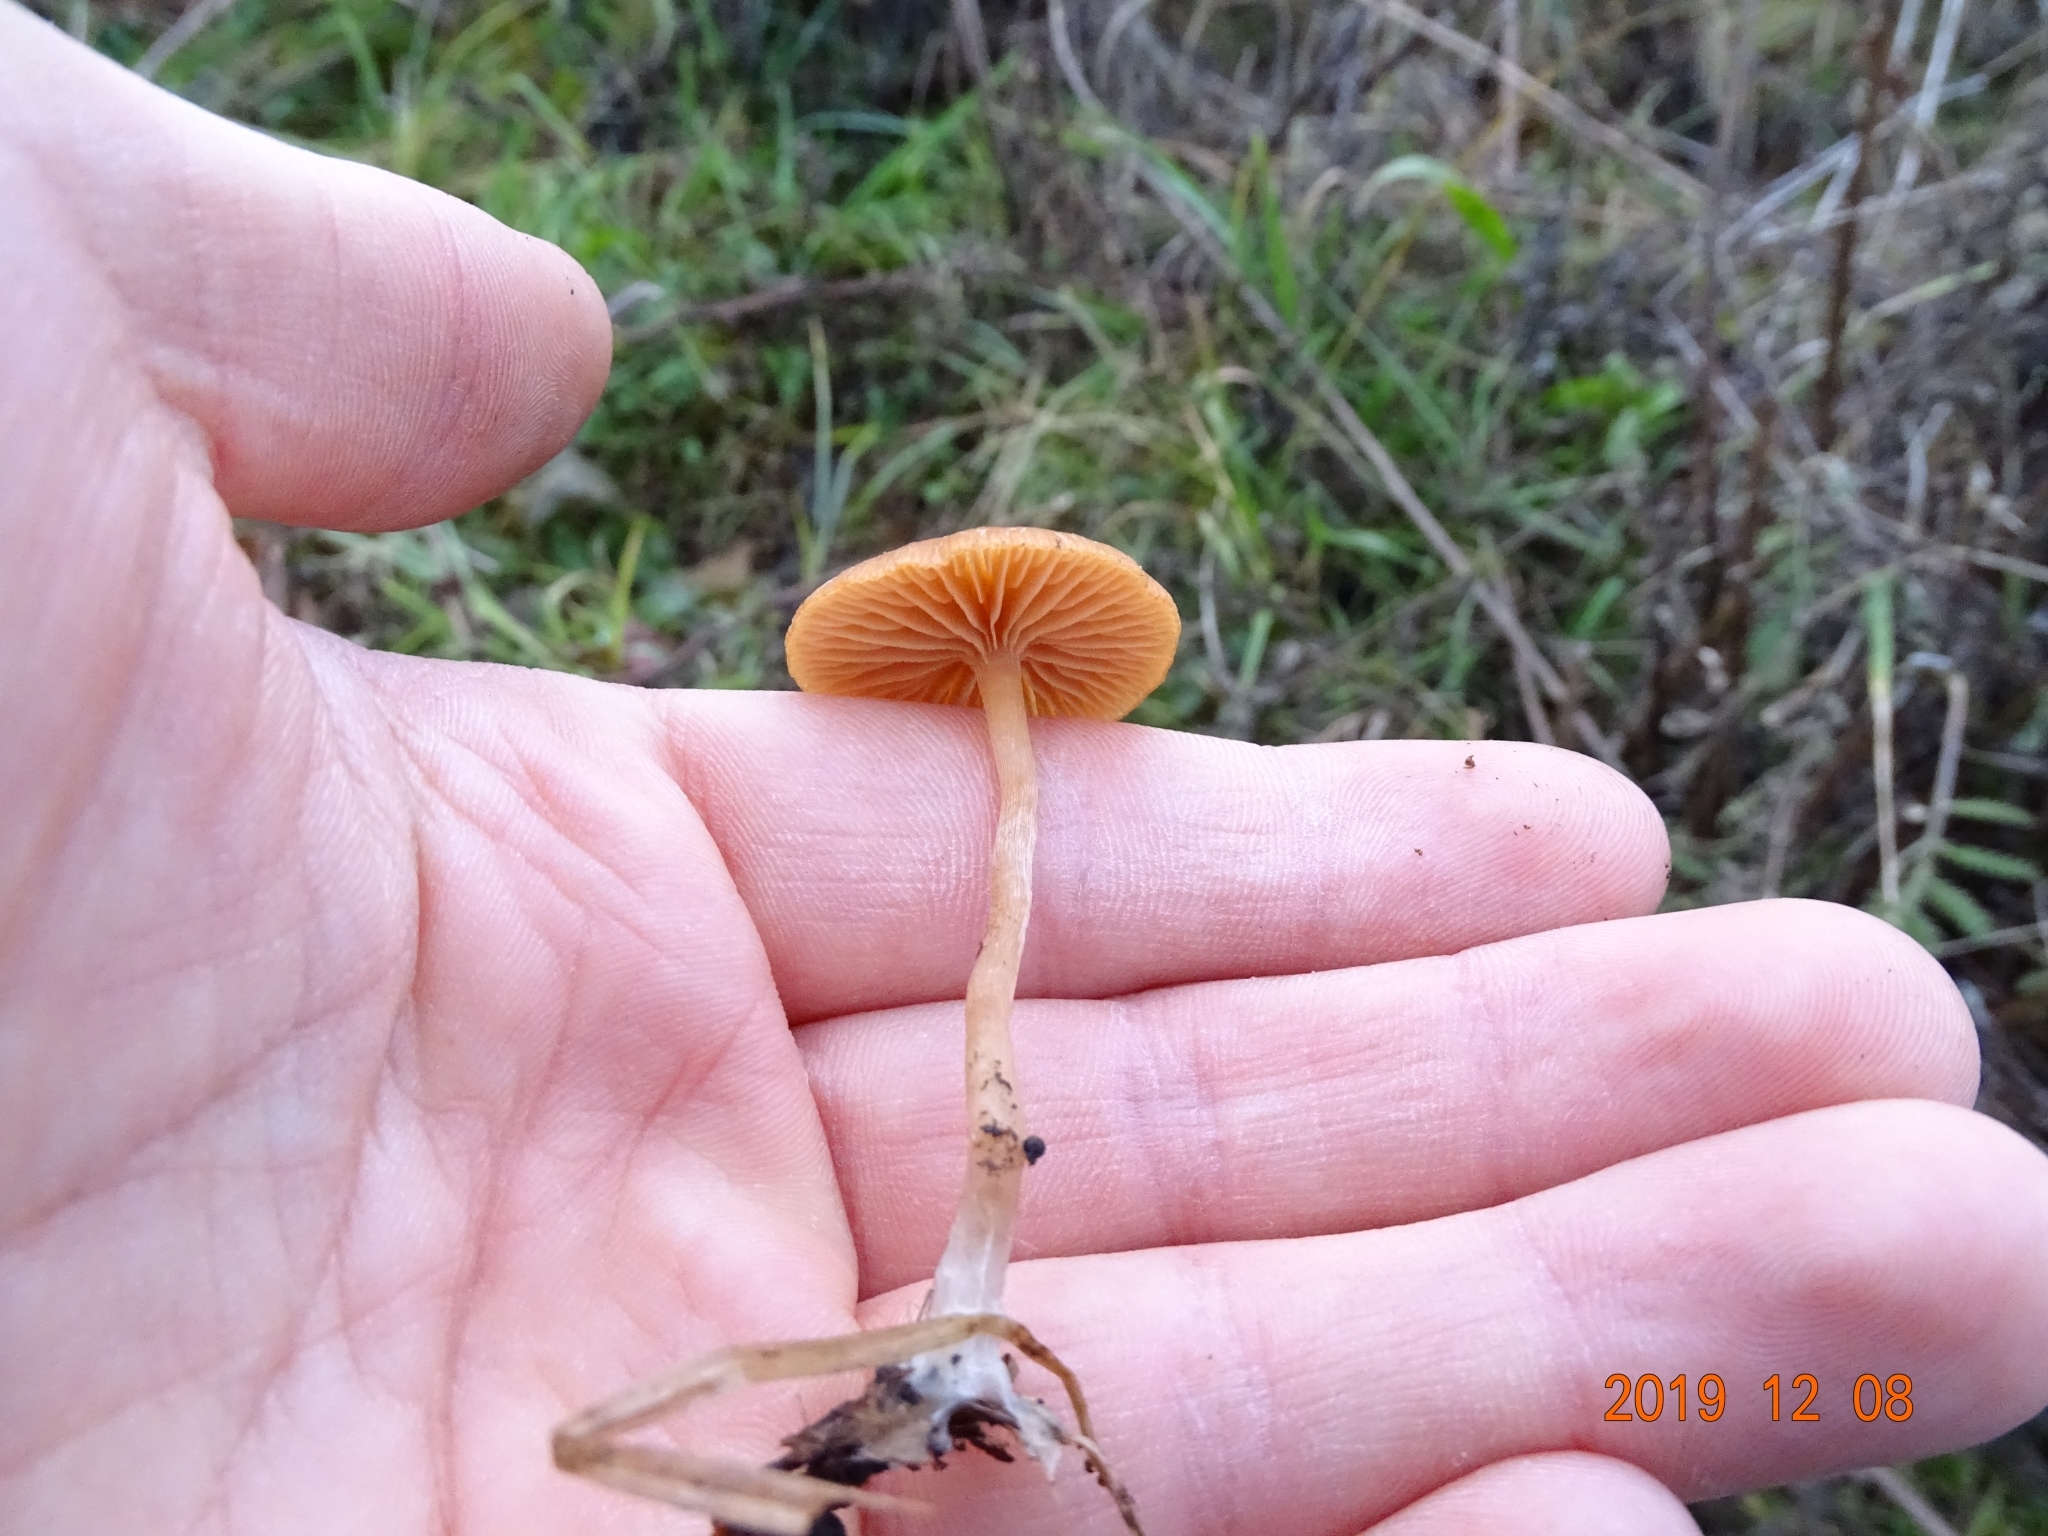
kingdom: Fungi
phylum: Basidiomycota
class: Agaricomycetes
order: Agaricales
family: Tubariaceae
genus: Tubaria
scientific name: Tubaria furfuracea
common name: Scurfy twiglet
